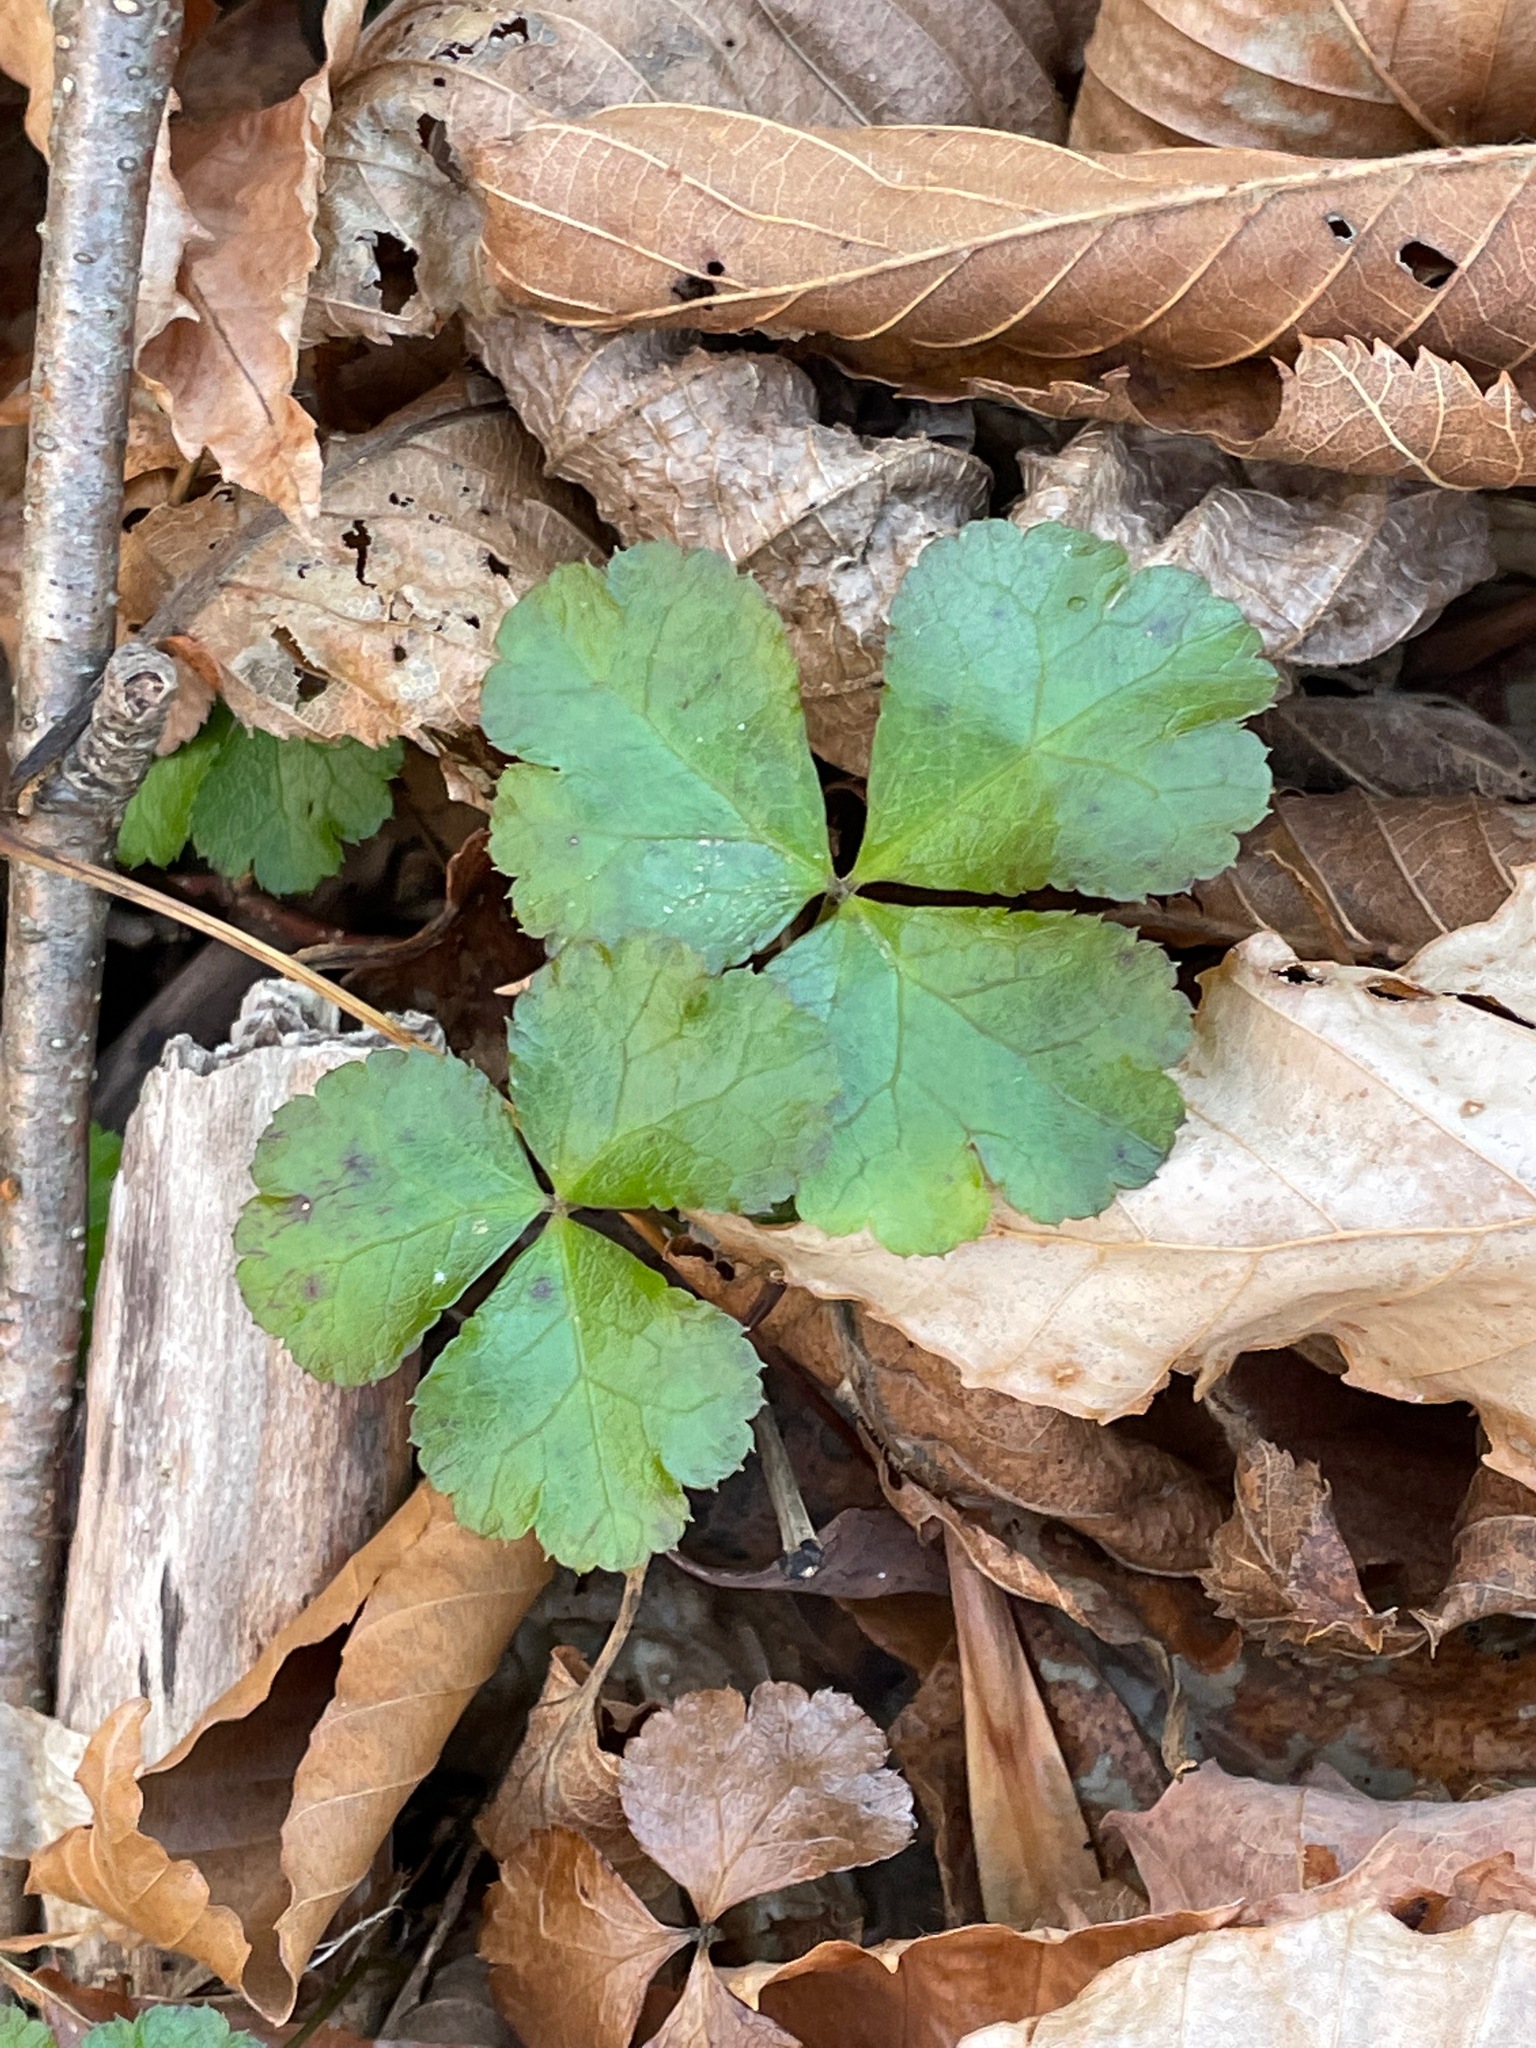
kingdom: Plantae
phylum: Tracheophyta
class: Magnoliopsida
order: Ranunculales
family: Ranunculaceae
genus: Coptis
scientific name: Coptis trifolia
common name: Canker-root
